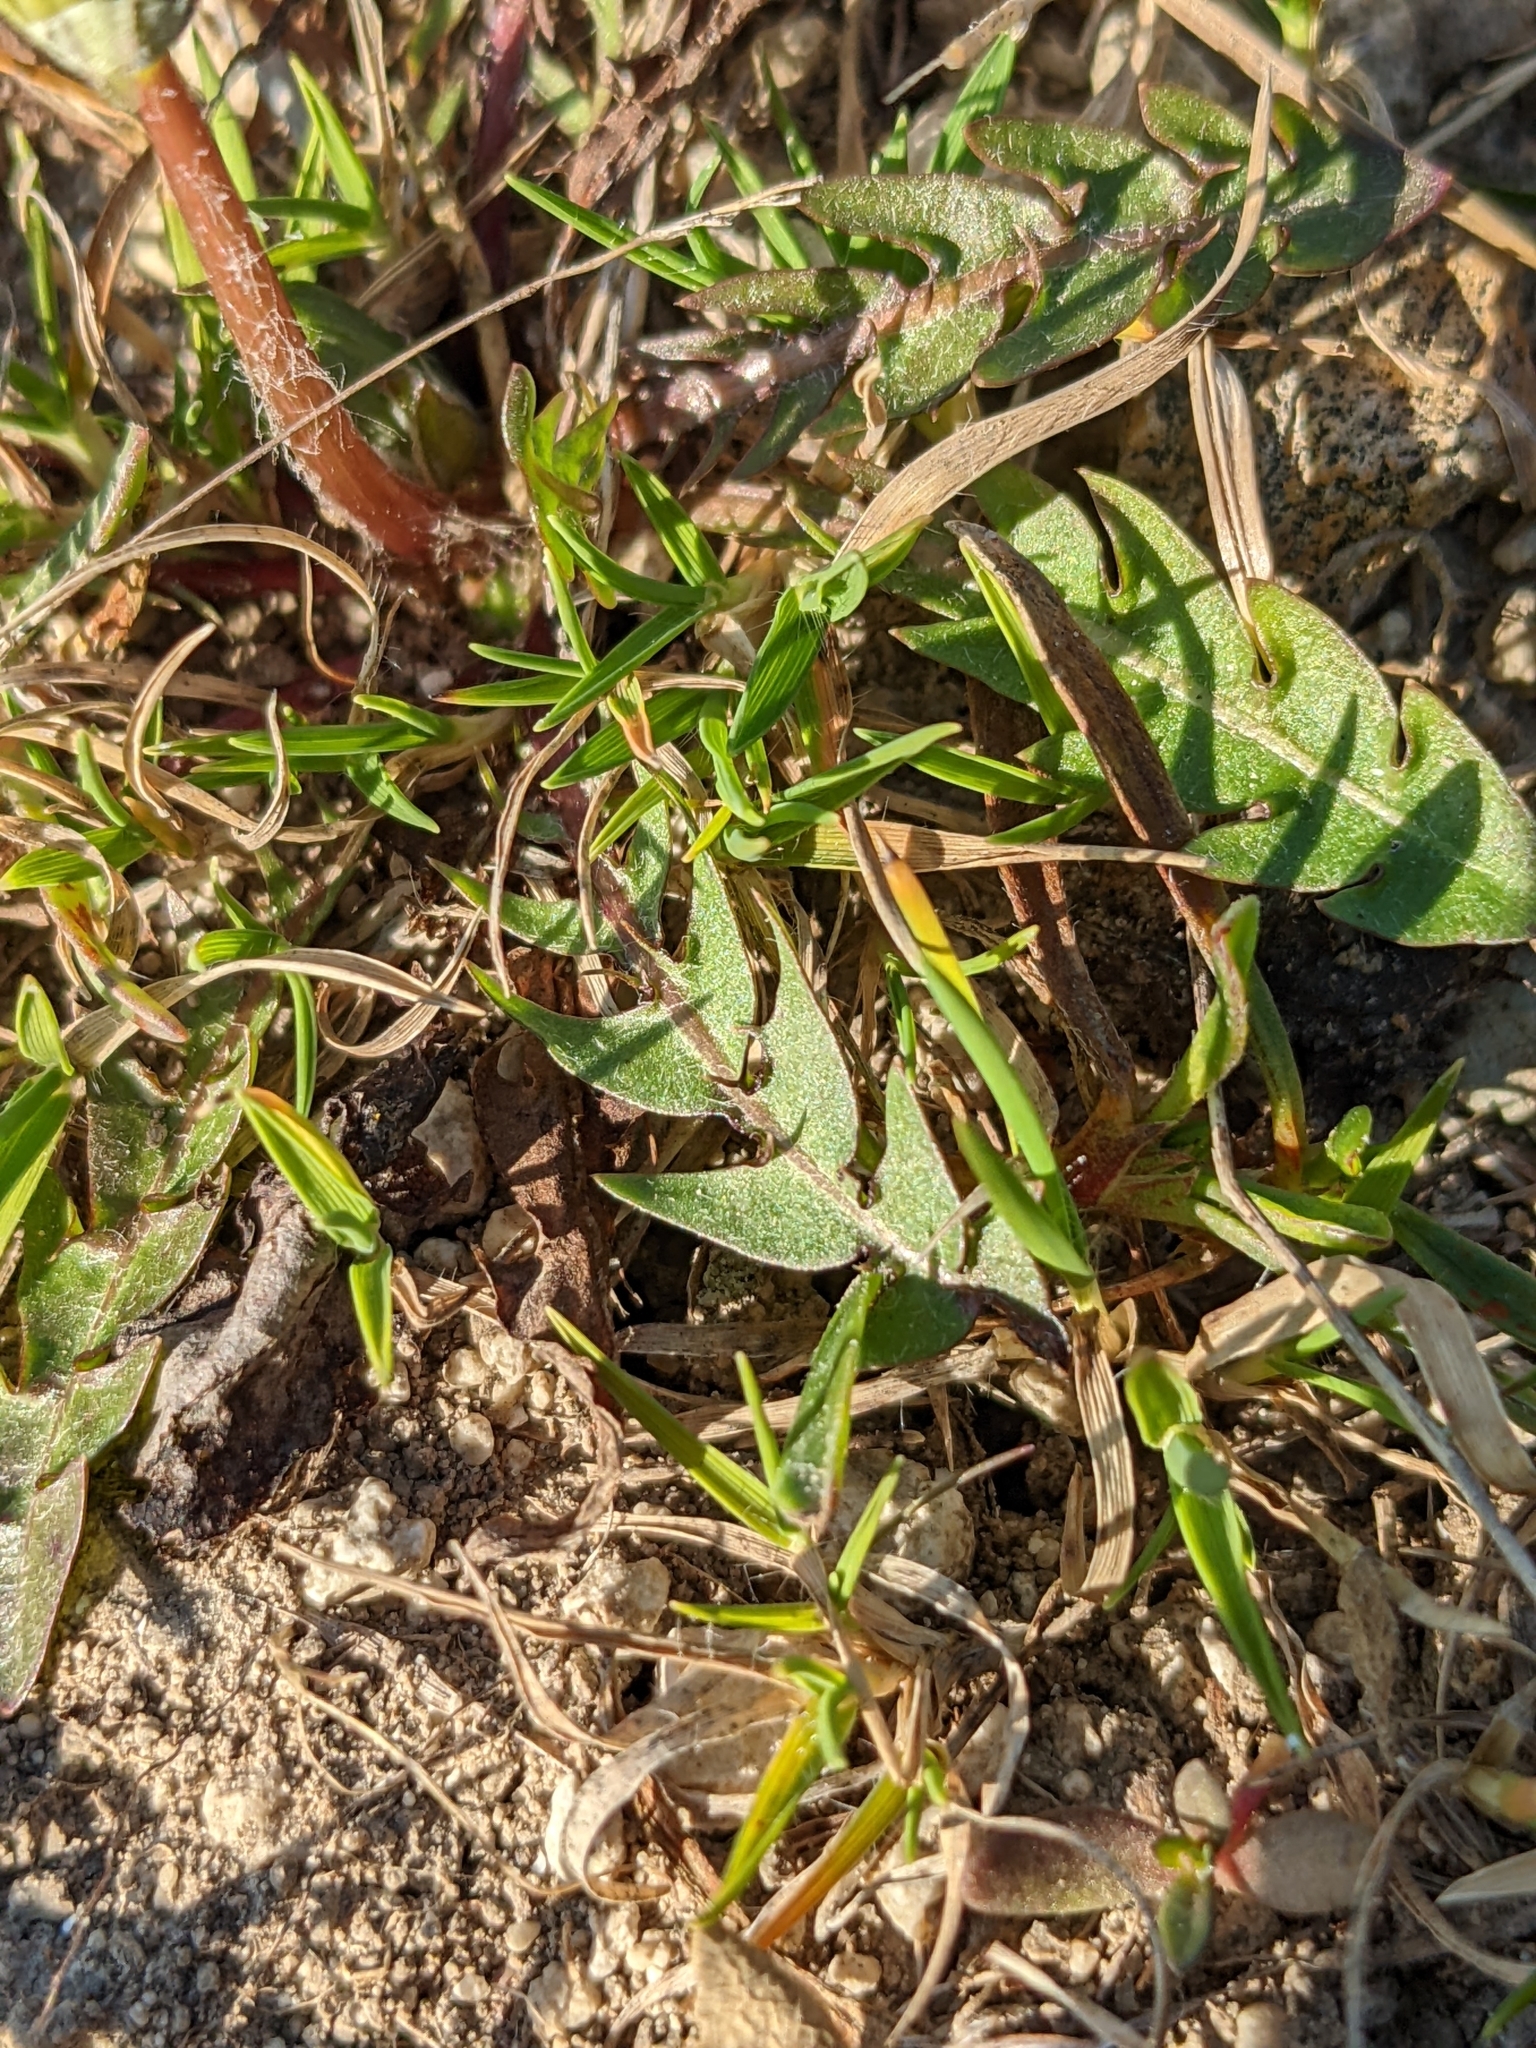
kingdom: Plantae
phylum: Tracheophyta
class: Magnoliopsida
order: Asterales
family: Asteraceae
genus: Taraxacum
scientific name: Taraxacum erythrospermum
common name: Rock dandelion
